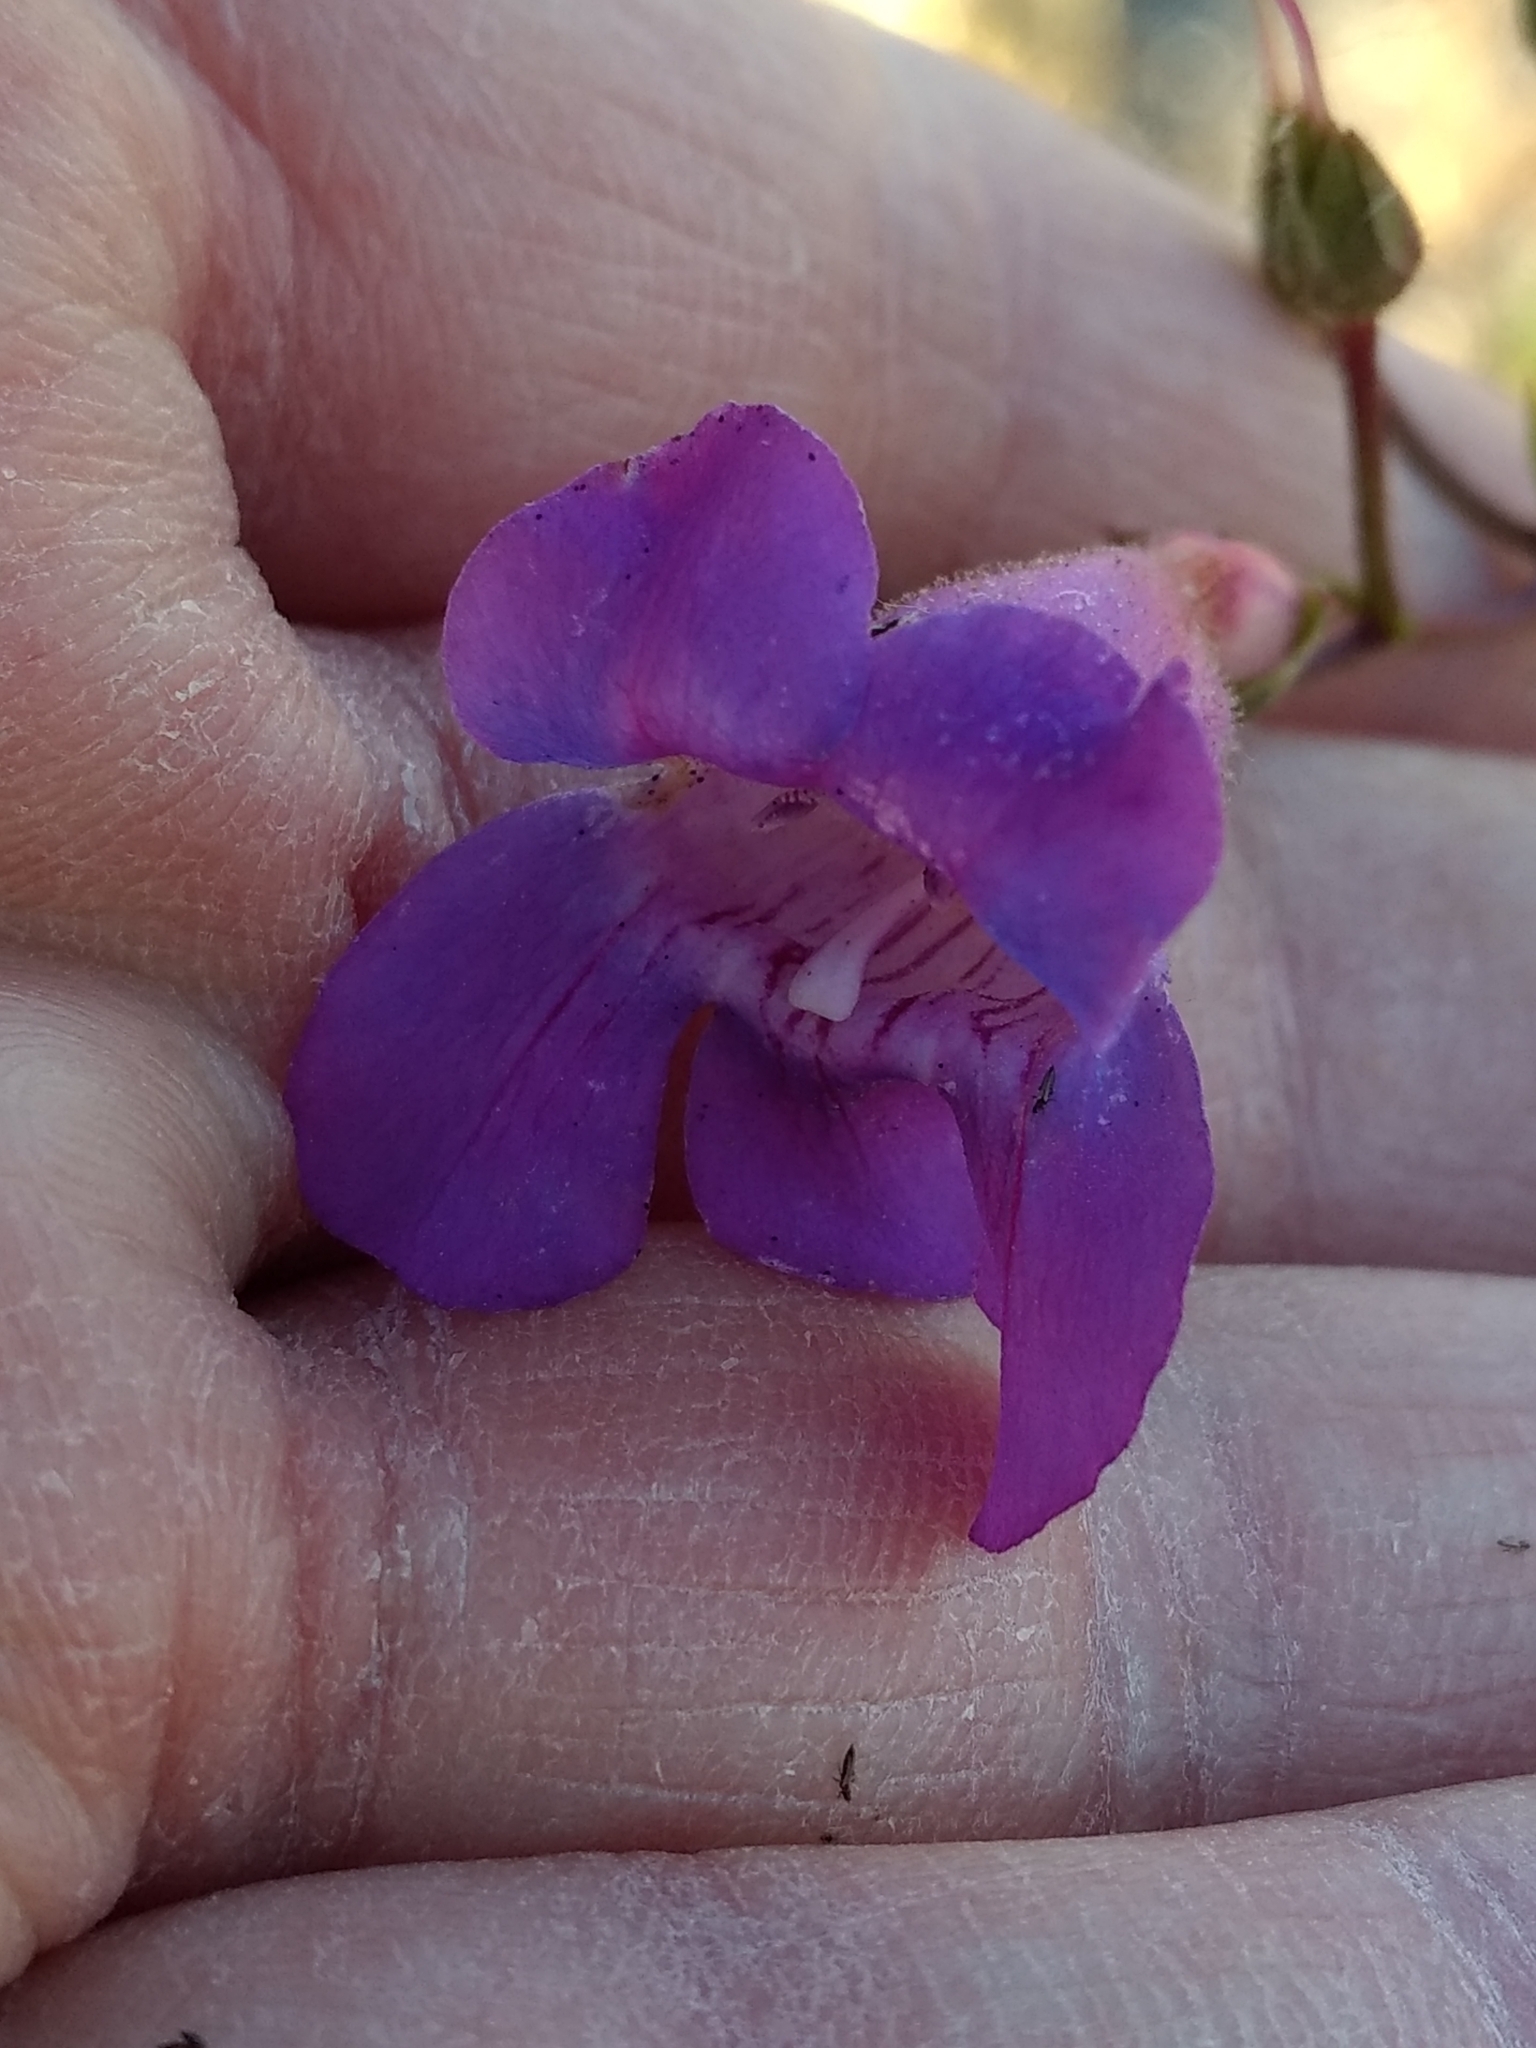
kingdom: Plantae
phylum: Tracheophyta
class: Magnoliopsida
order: Lamiales
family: Plantaginaceae
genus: Penstemon
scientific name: Penstemon spectabilis
